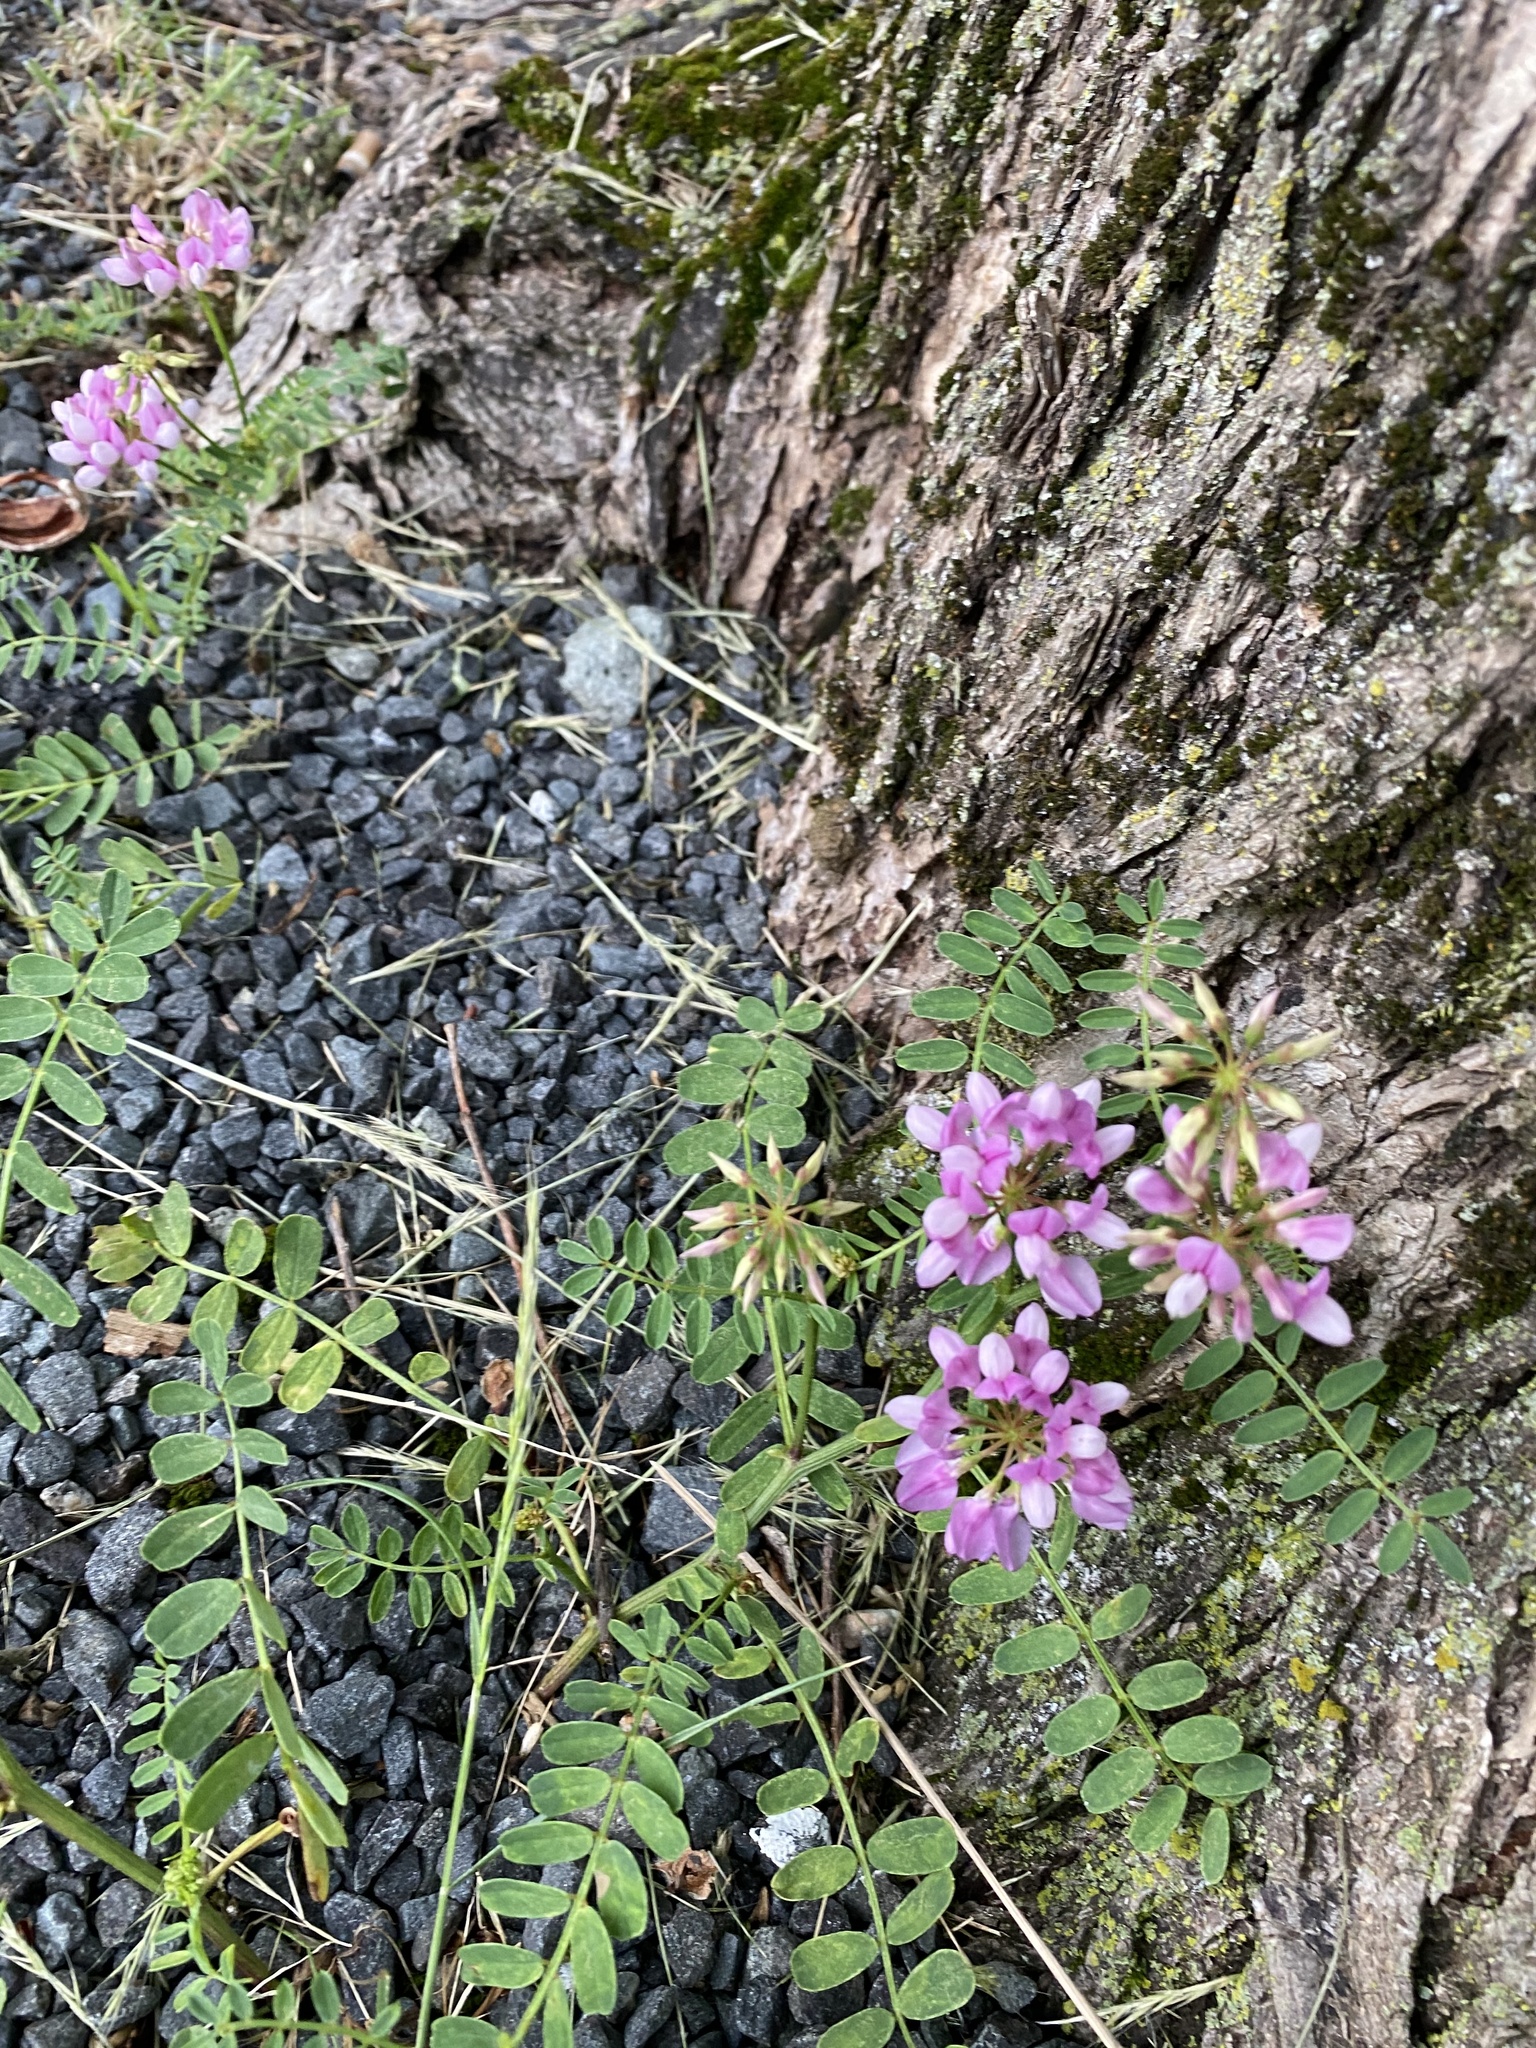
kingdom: Plantae
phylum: Tracheophyta
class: Magnoliopsida
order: Fabales
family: Fabaceae
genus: Coronilla
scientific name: Coronilla varia
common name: Crownvetch
